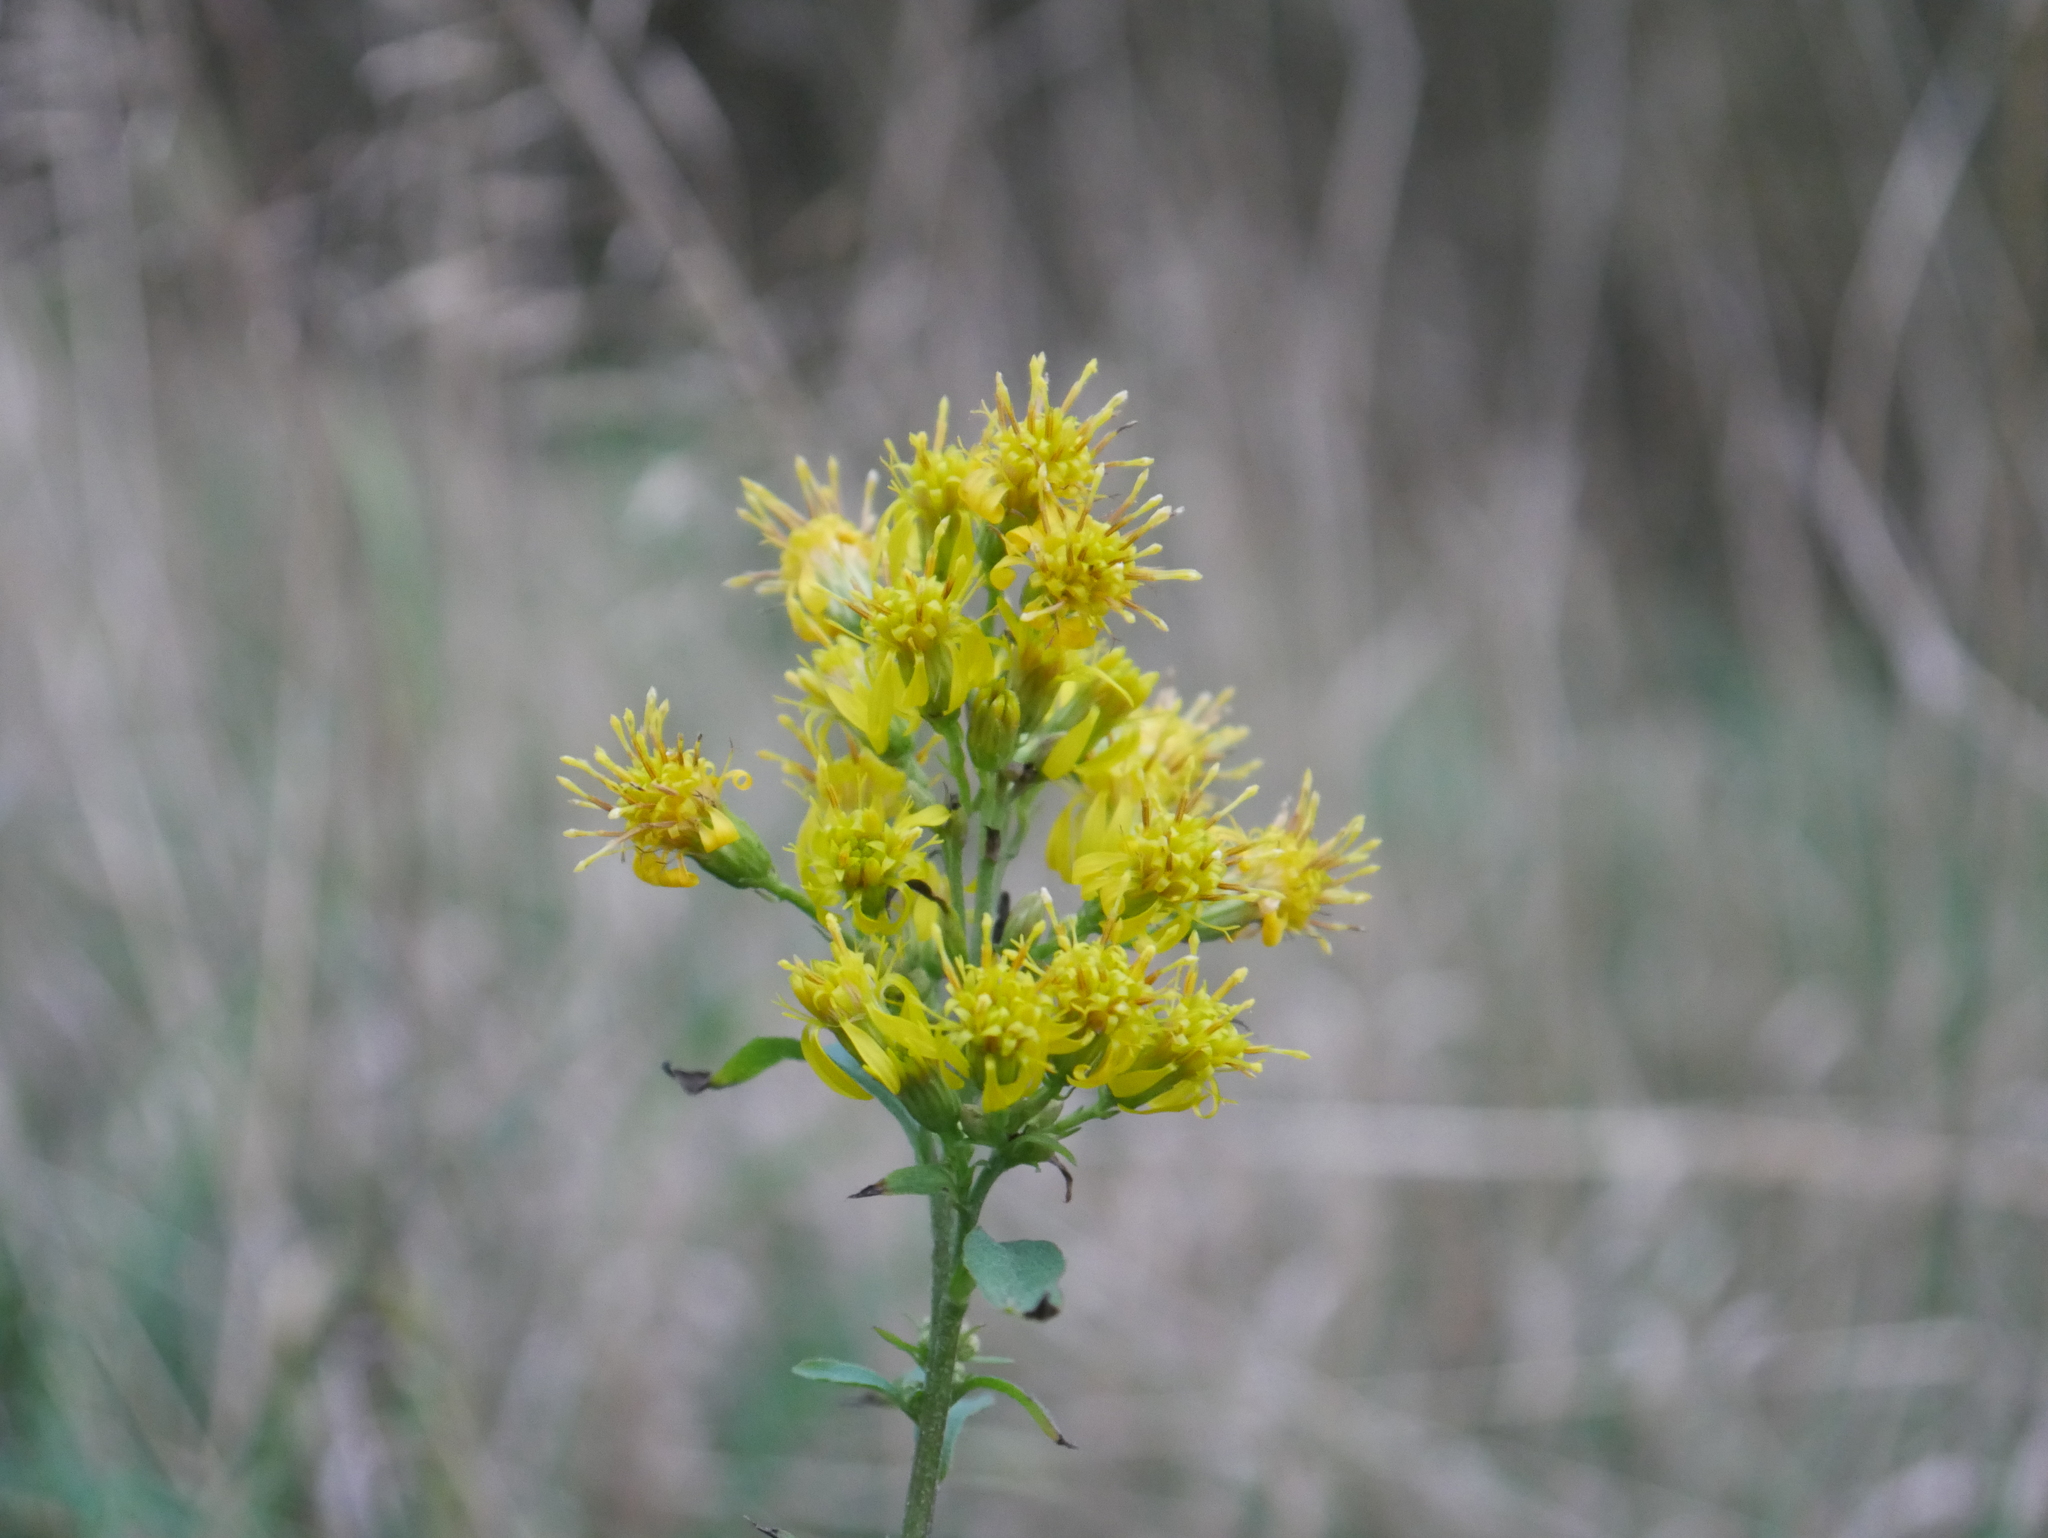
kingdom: Plantae
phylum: Tracheophyta
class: Magnoliopsida
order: Asterales
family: Asteraceae
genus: Solidago
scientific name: Solidago virgaurea
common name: Goldenrod
